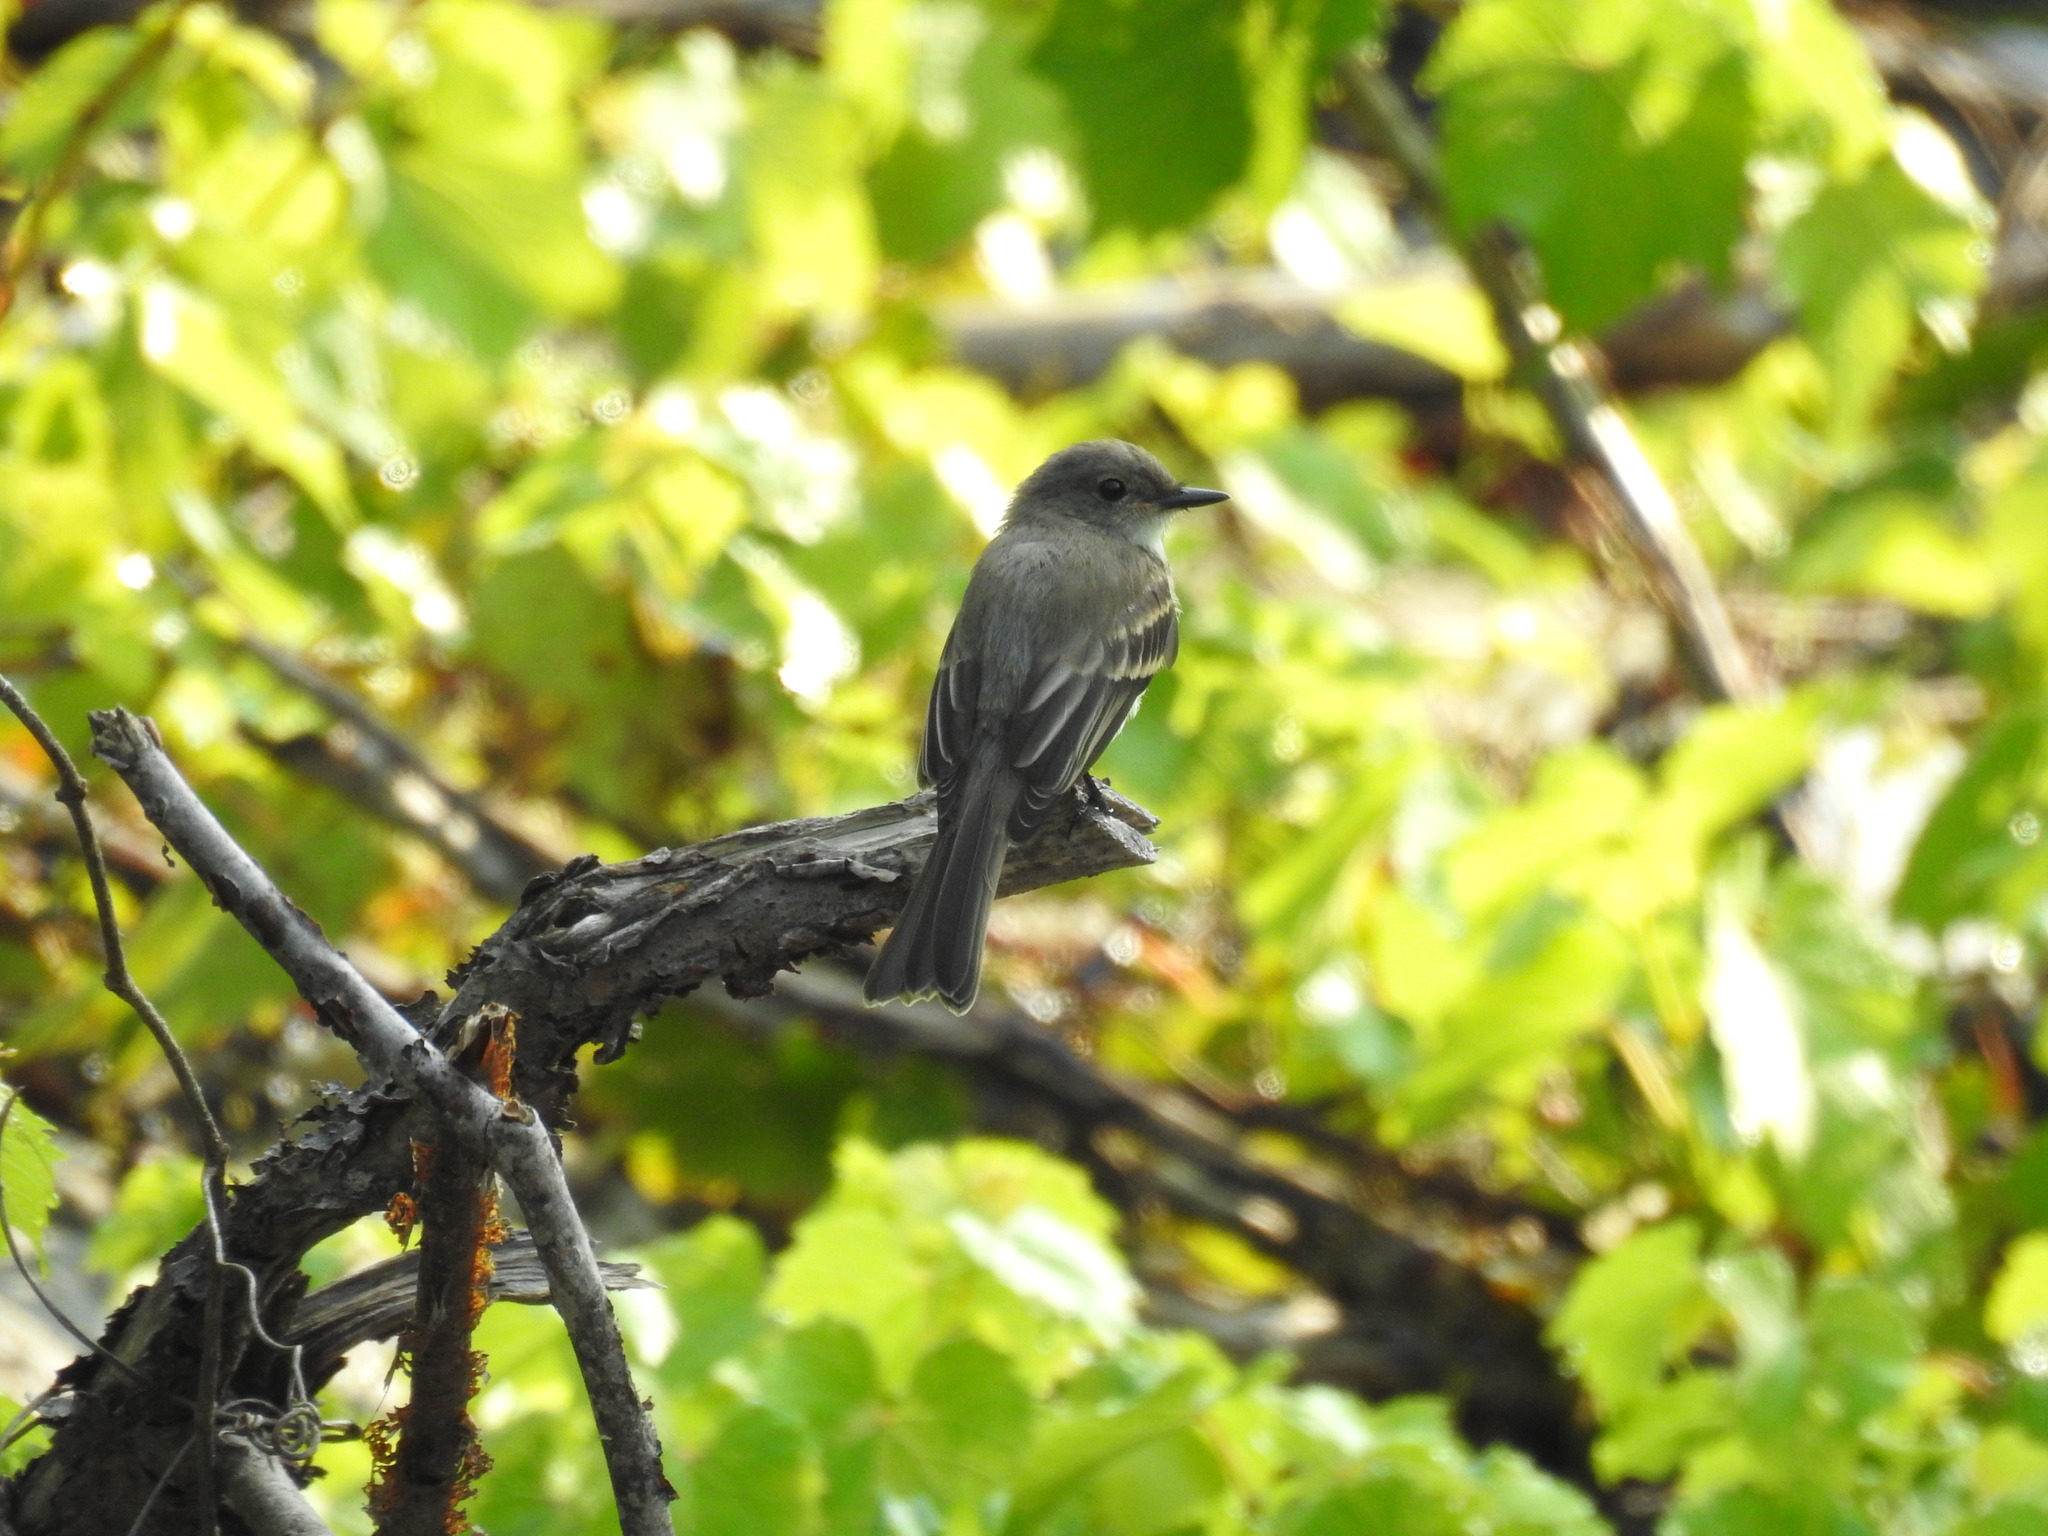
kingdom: Animalia
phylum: Chordata
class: Aves
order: Passeriformes
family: Tyrannidae
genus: Sayornis
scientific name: Sayornis phoebe
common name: Eastern phoebe
